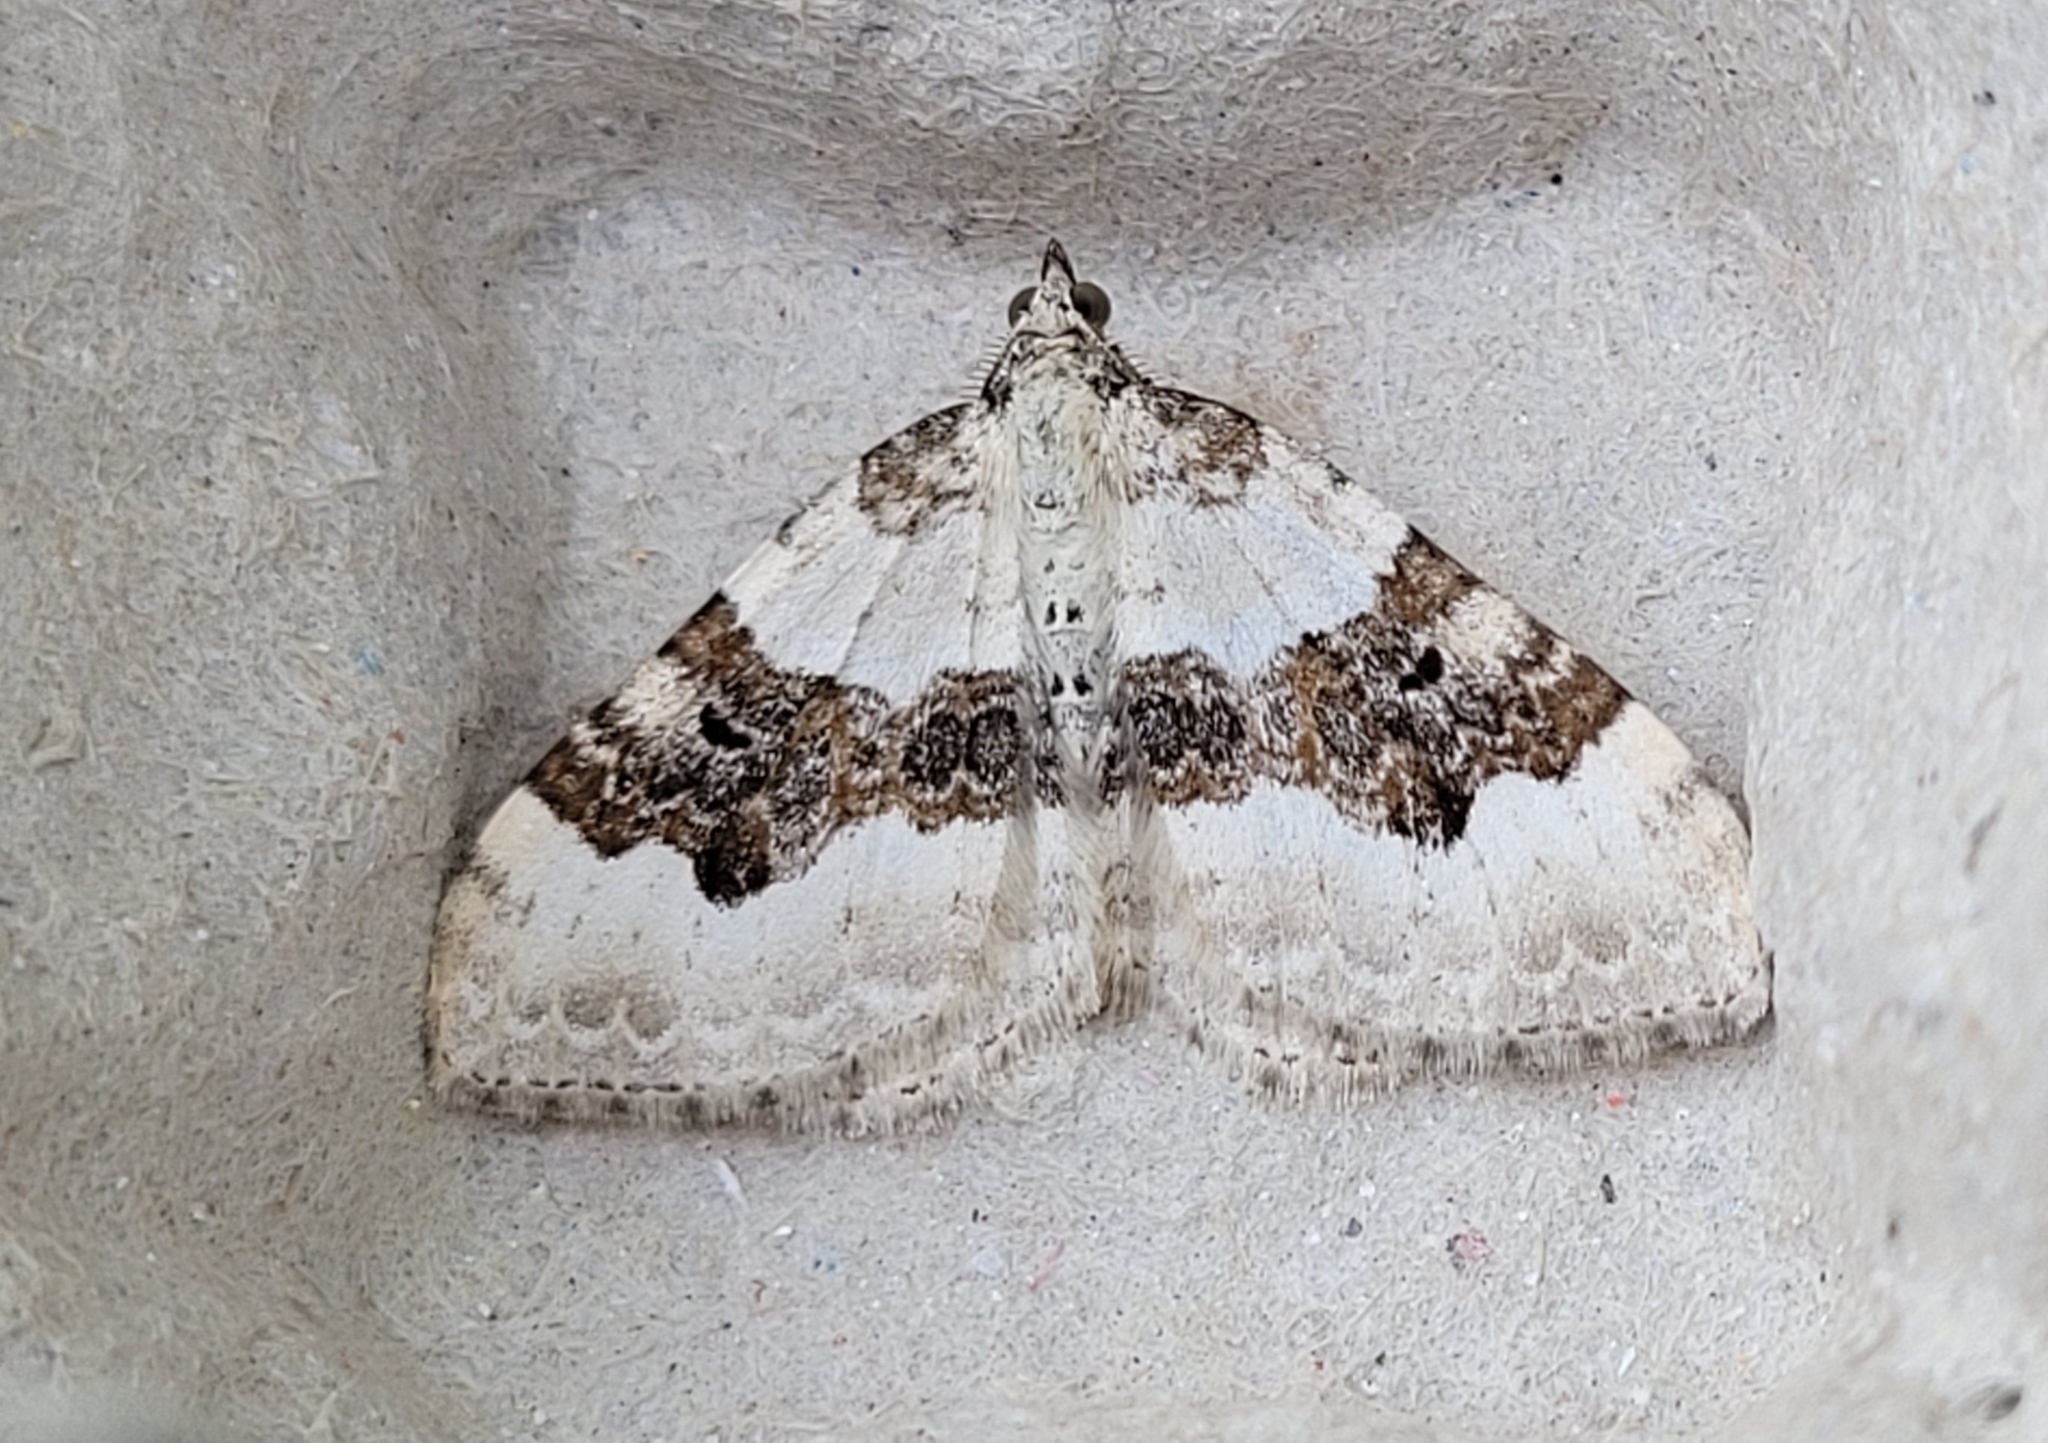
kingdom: Animalia
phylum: Arthropoda
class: Insecta
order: Lepidoptera
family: Geometridae
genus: Xanthorhoe
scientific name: Xanthorhoe montanata
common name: Silver-ground carpet
